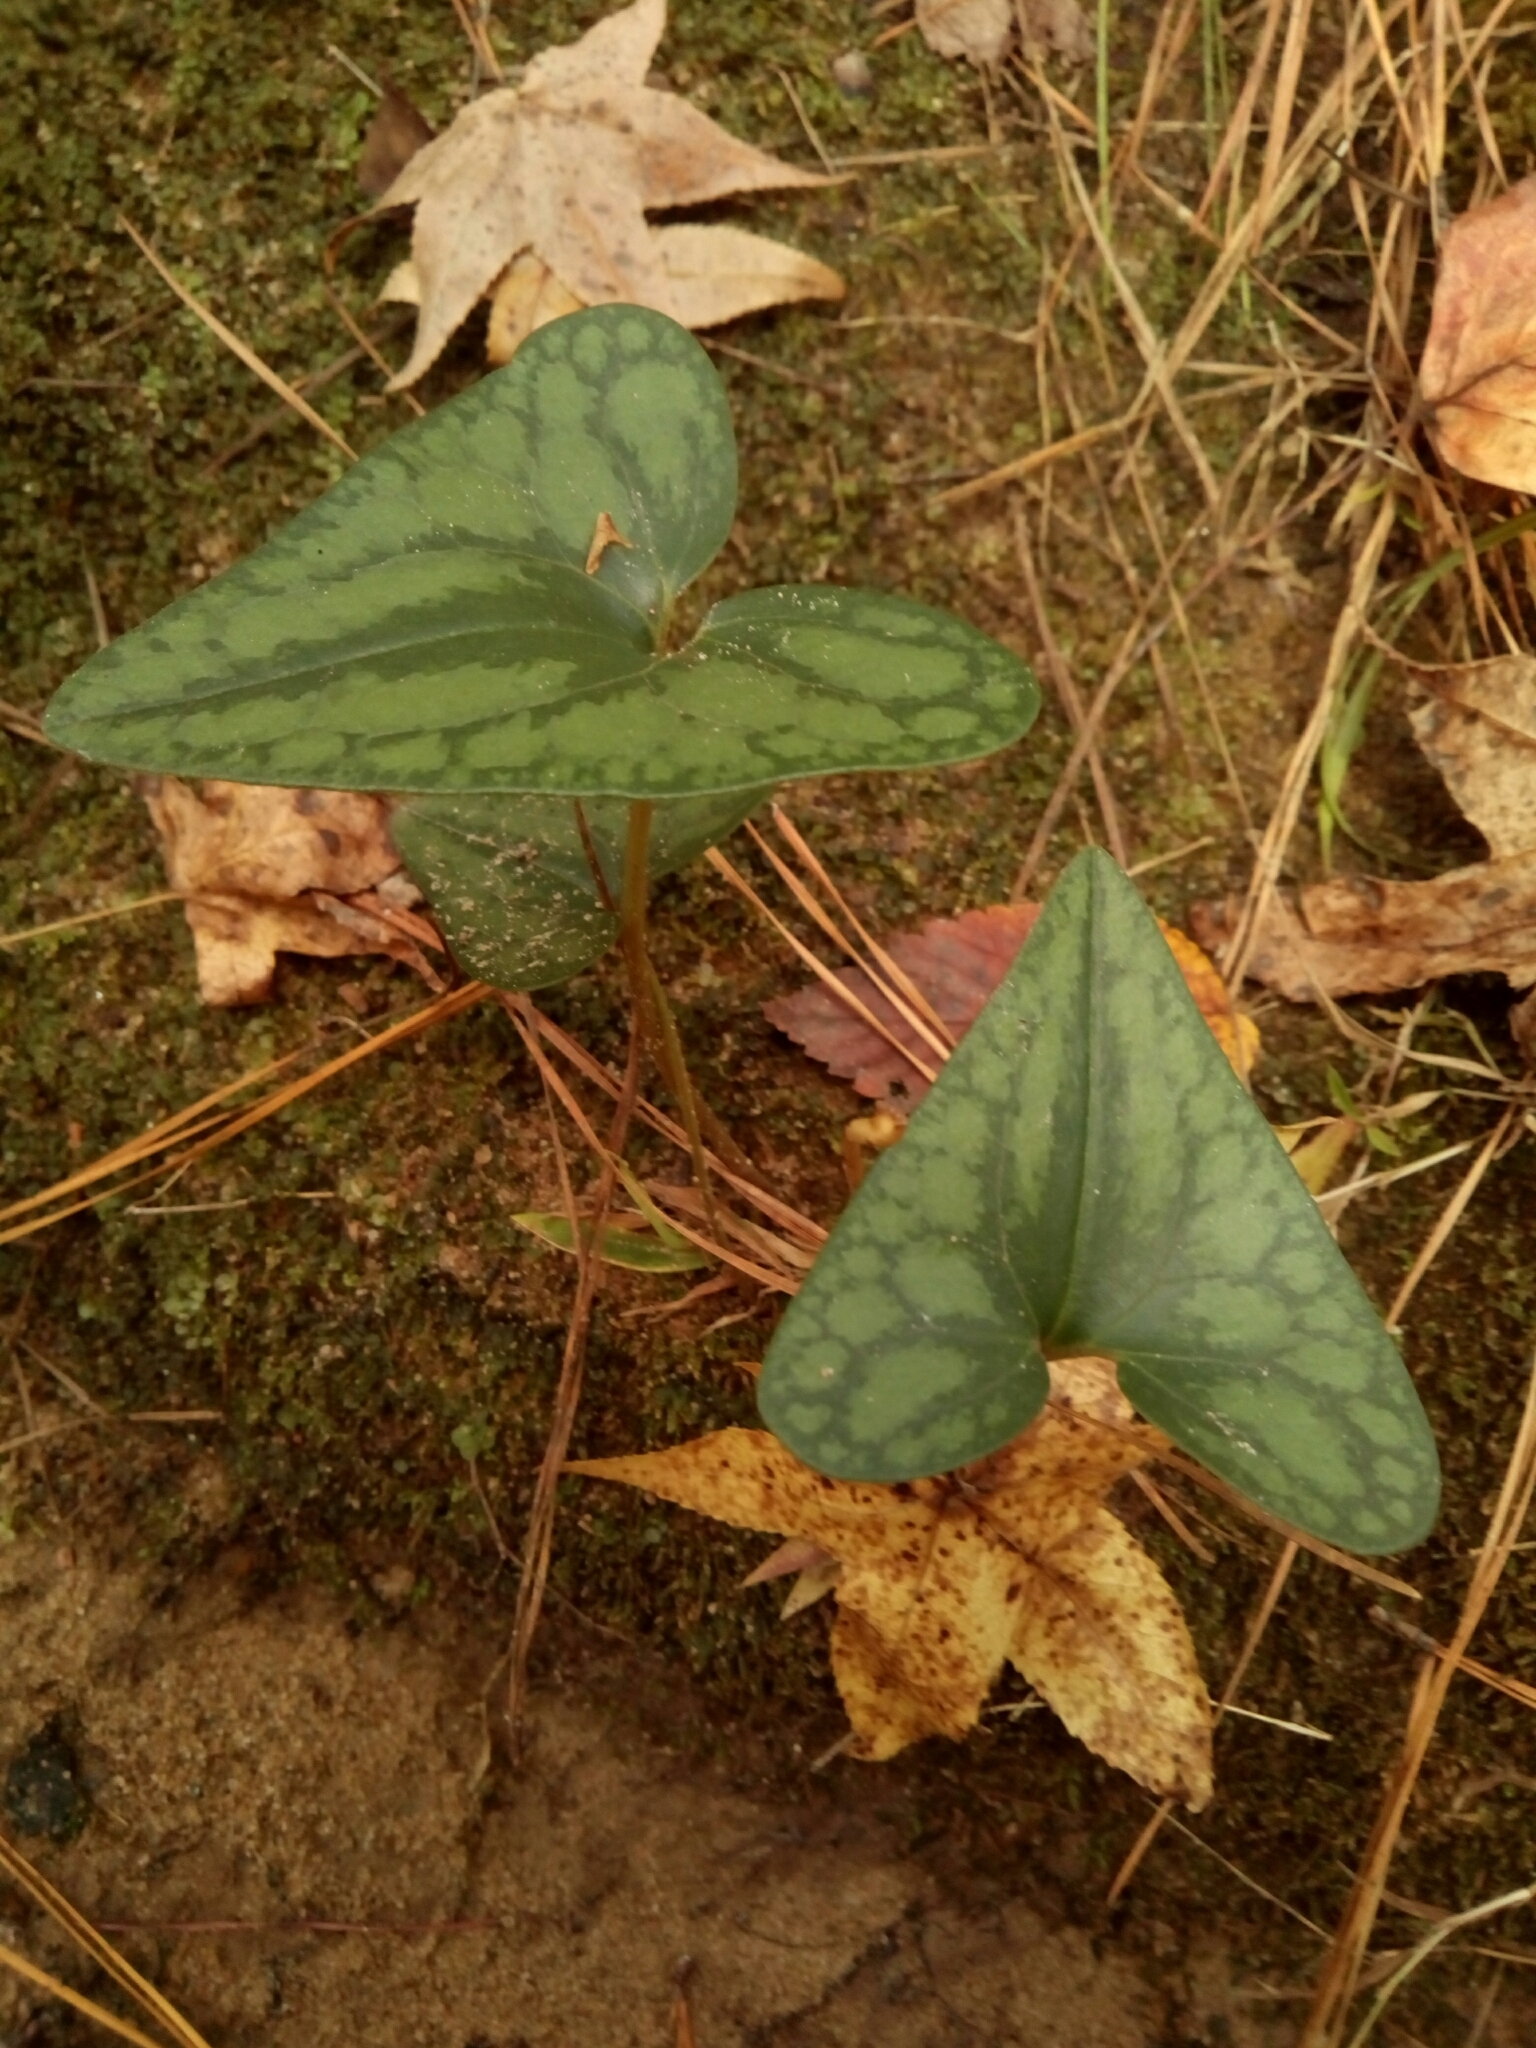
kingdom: Plantae
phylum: Tracheophyta
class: Magnoliopsida
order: Piperales
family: Aristolochiaceae
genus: Hexastylis
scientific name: Hexastylis arifolia
